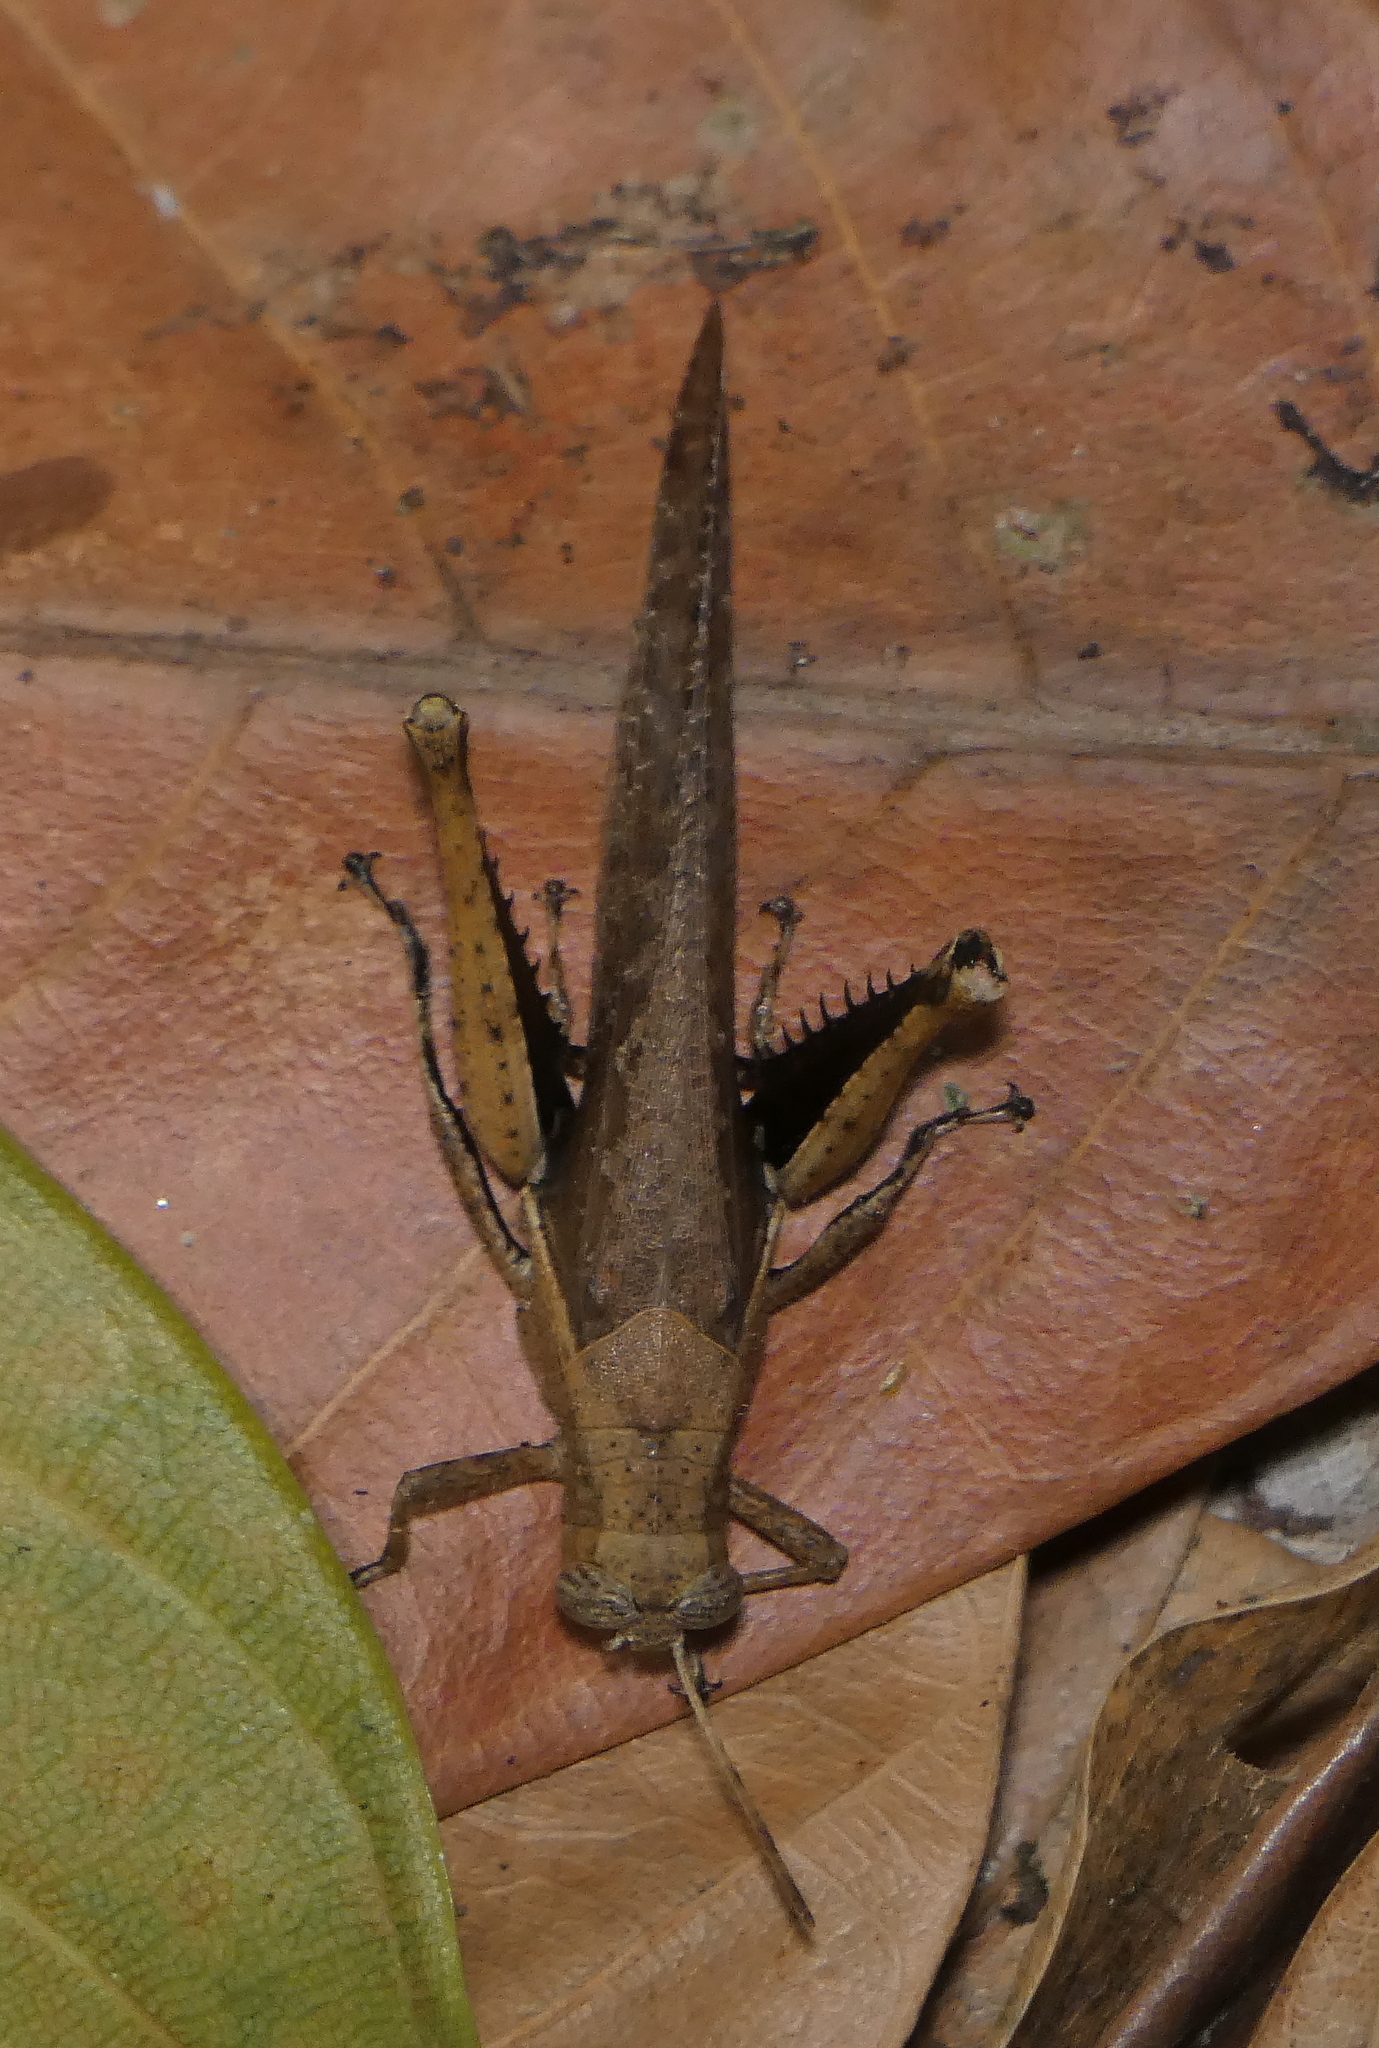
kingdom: Animalia
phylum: Arthropoda
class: Insecta
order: Orthoptera
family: Acrididae
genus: Abracris
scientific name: Abracris flavolineata
